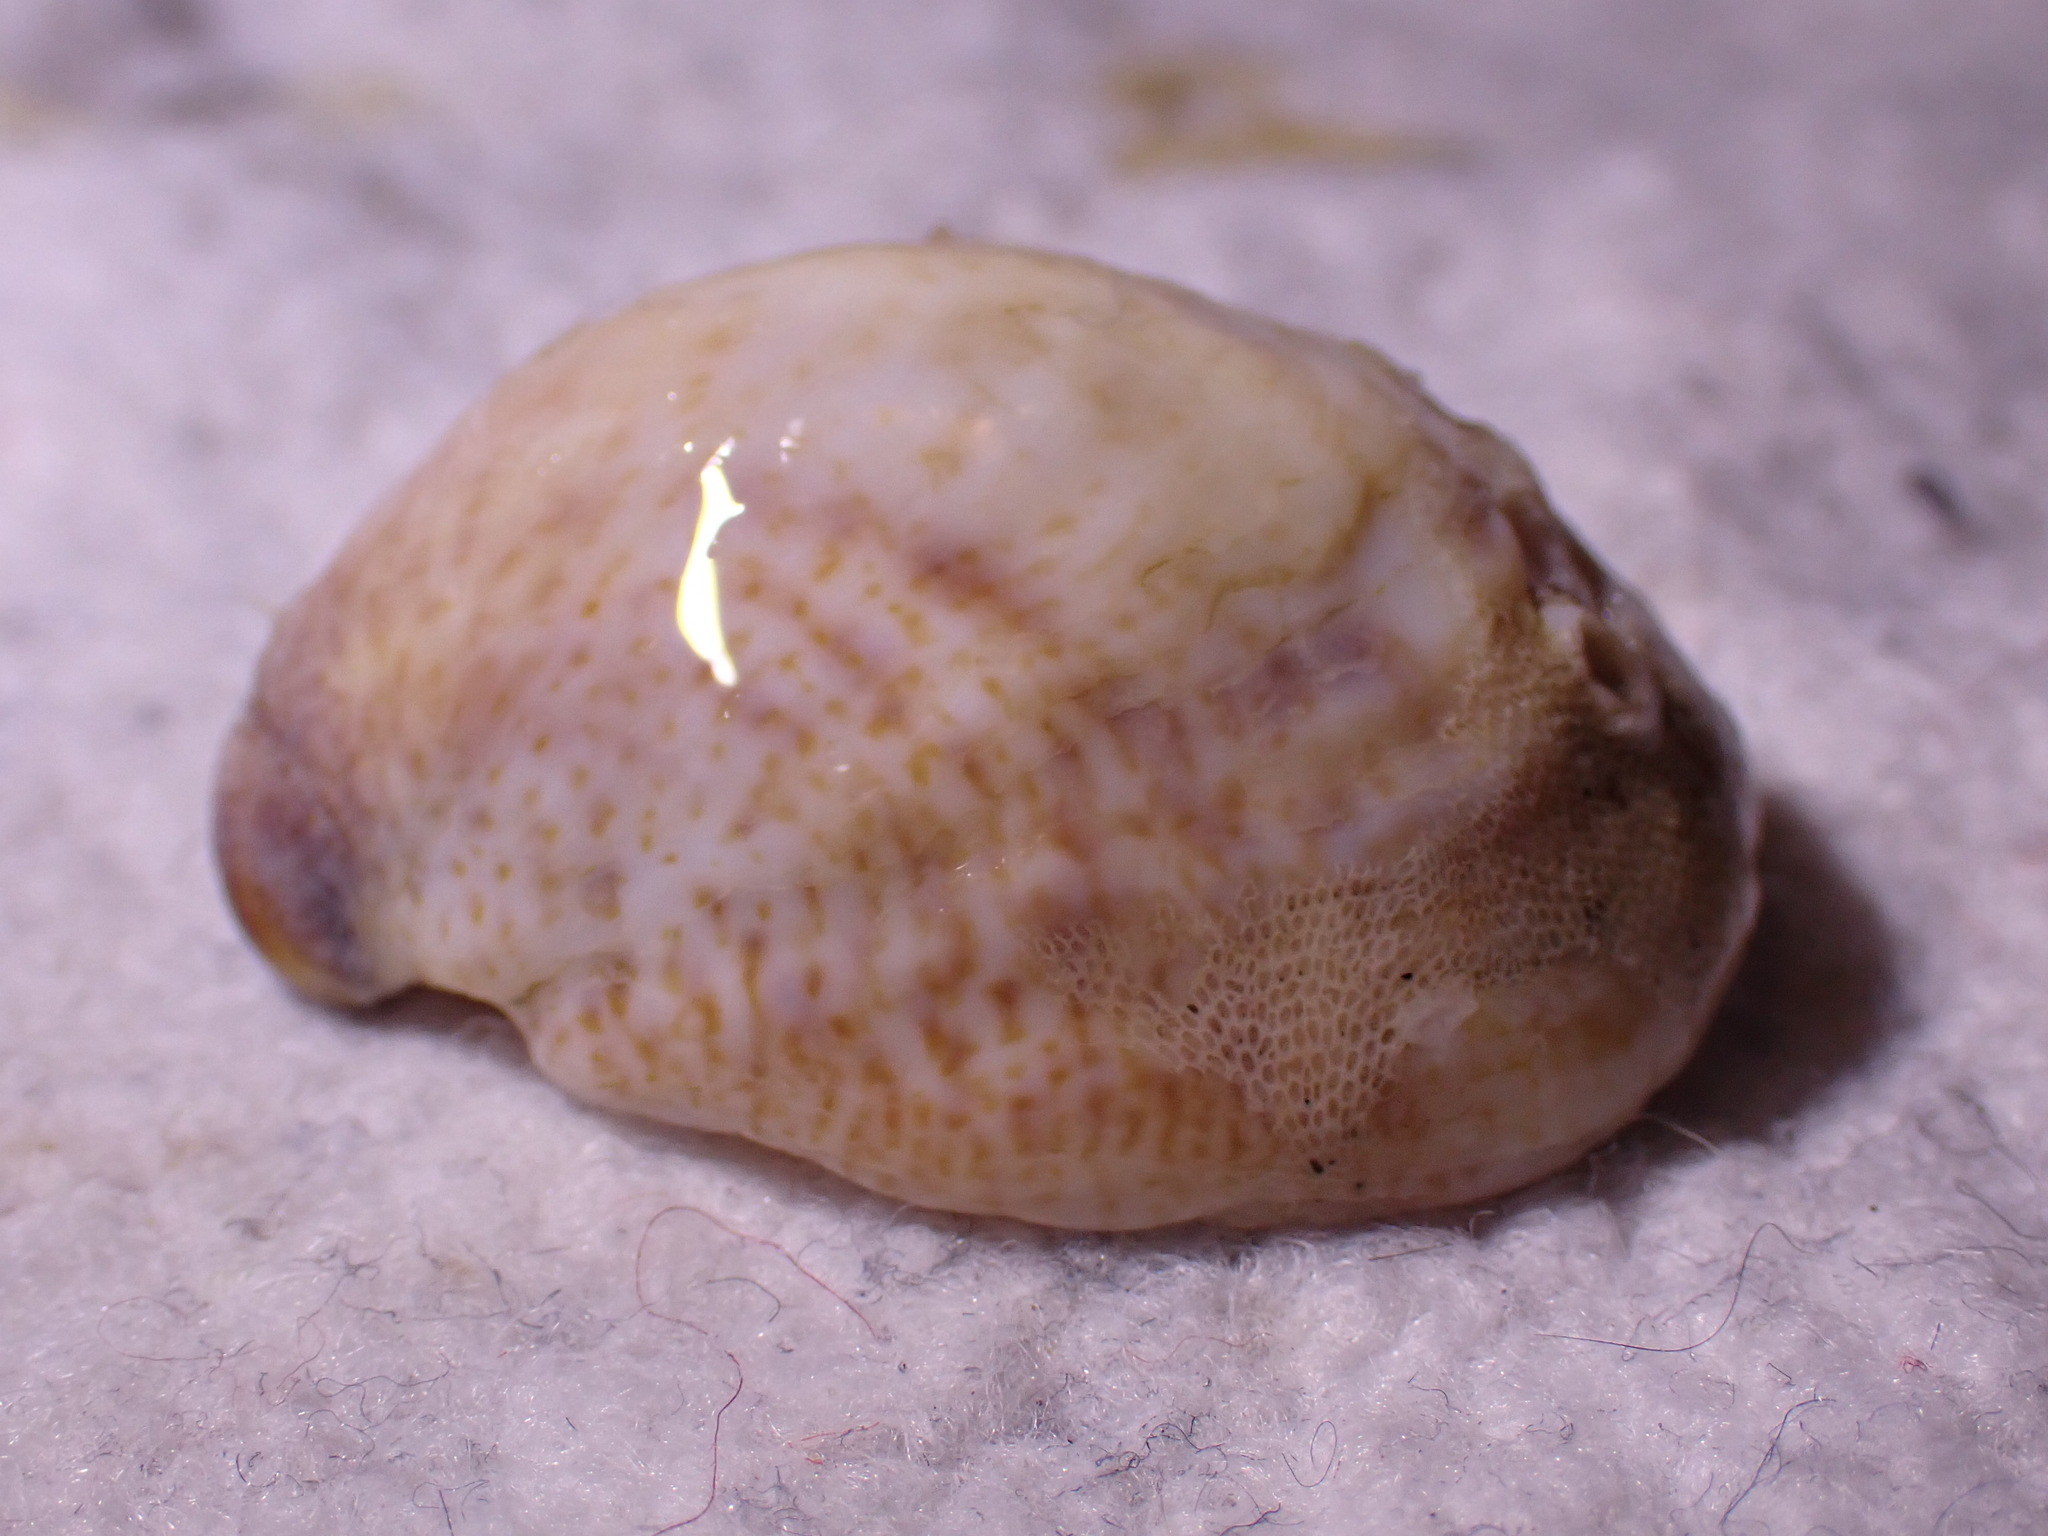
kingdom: Animalia
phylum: Mollusca
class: Gastropoda
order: Littorinimorpha
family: Calyptraeidae
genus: Crepidula
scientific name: Crepidula fornicata
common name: Slipper limpet
